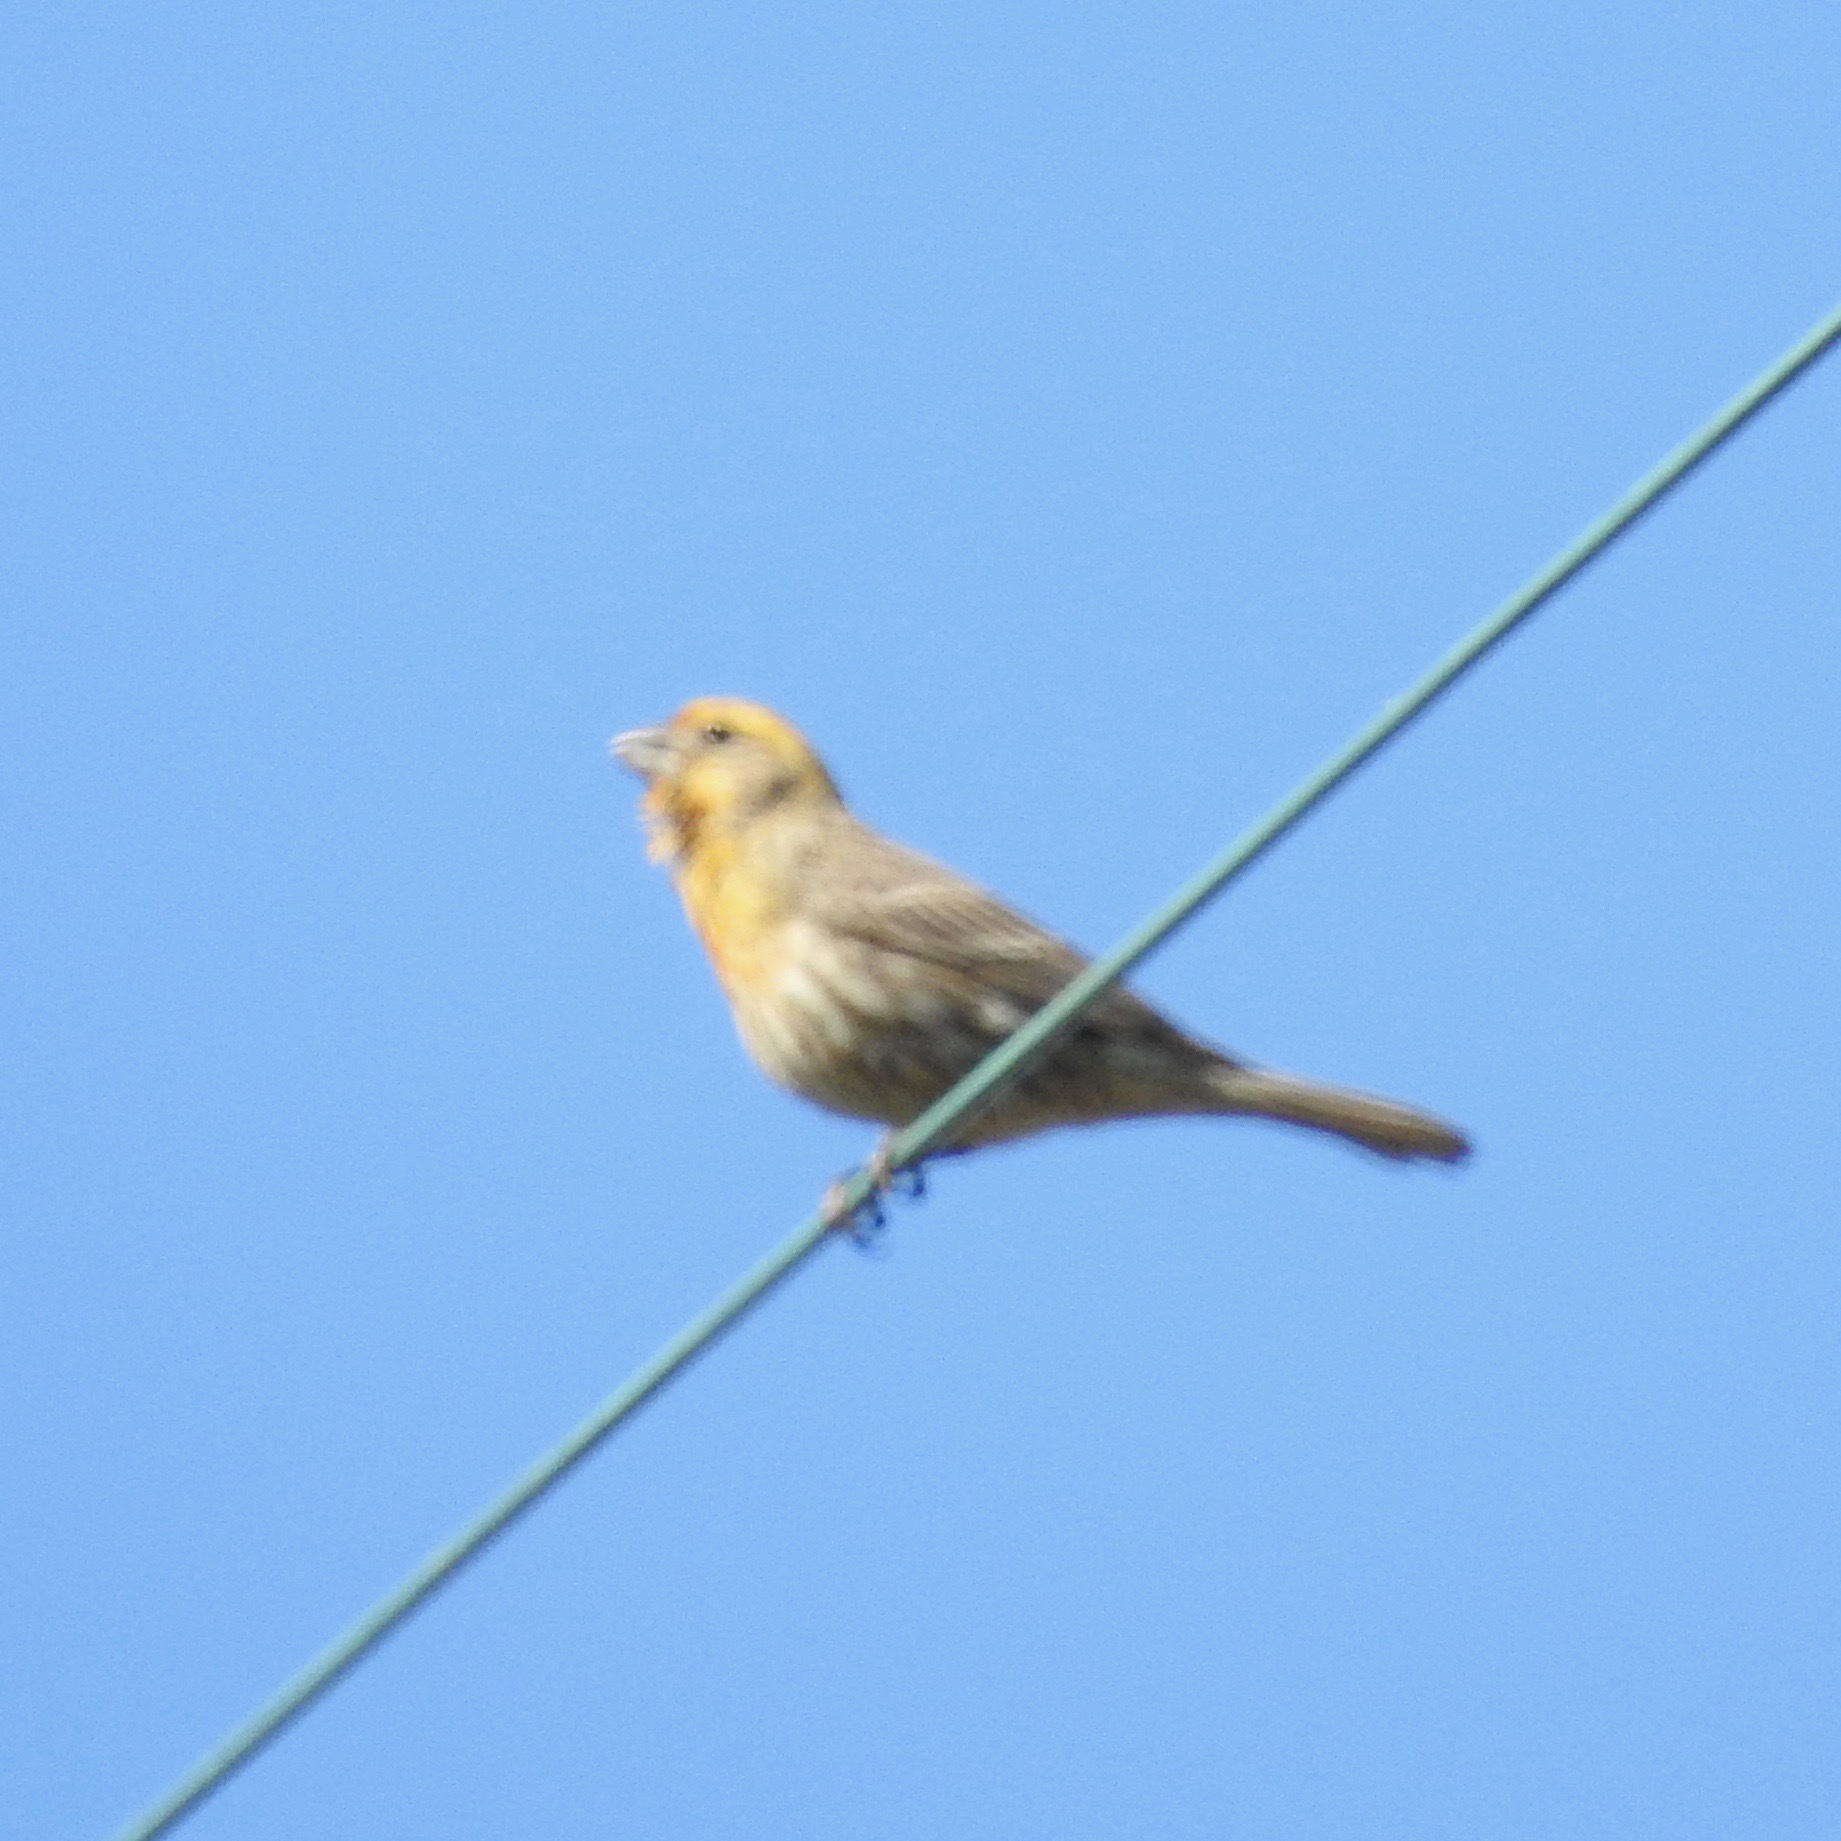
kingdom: Animalia
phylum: Chordata
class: Aves
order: Passeriformes
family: Fringillidae
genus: Haemorhous
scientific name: Haemorhous mexicanus
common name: House finch
